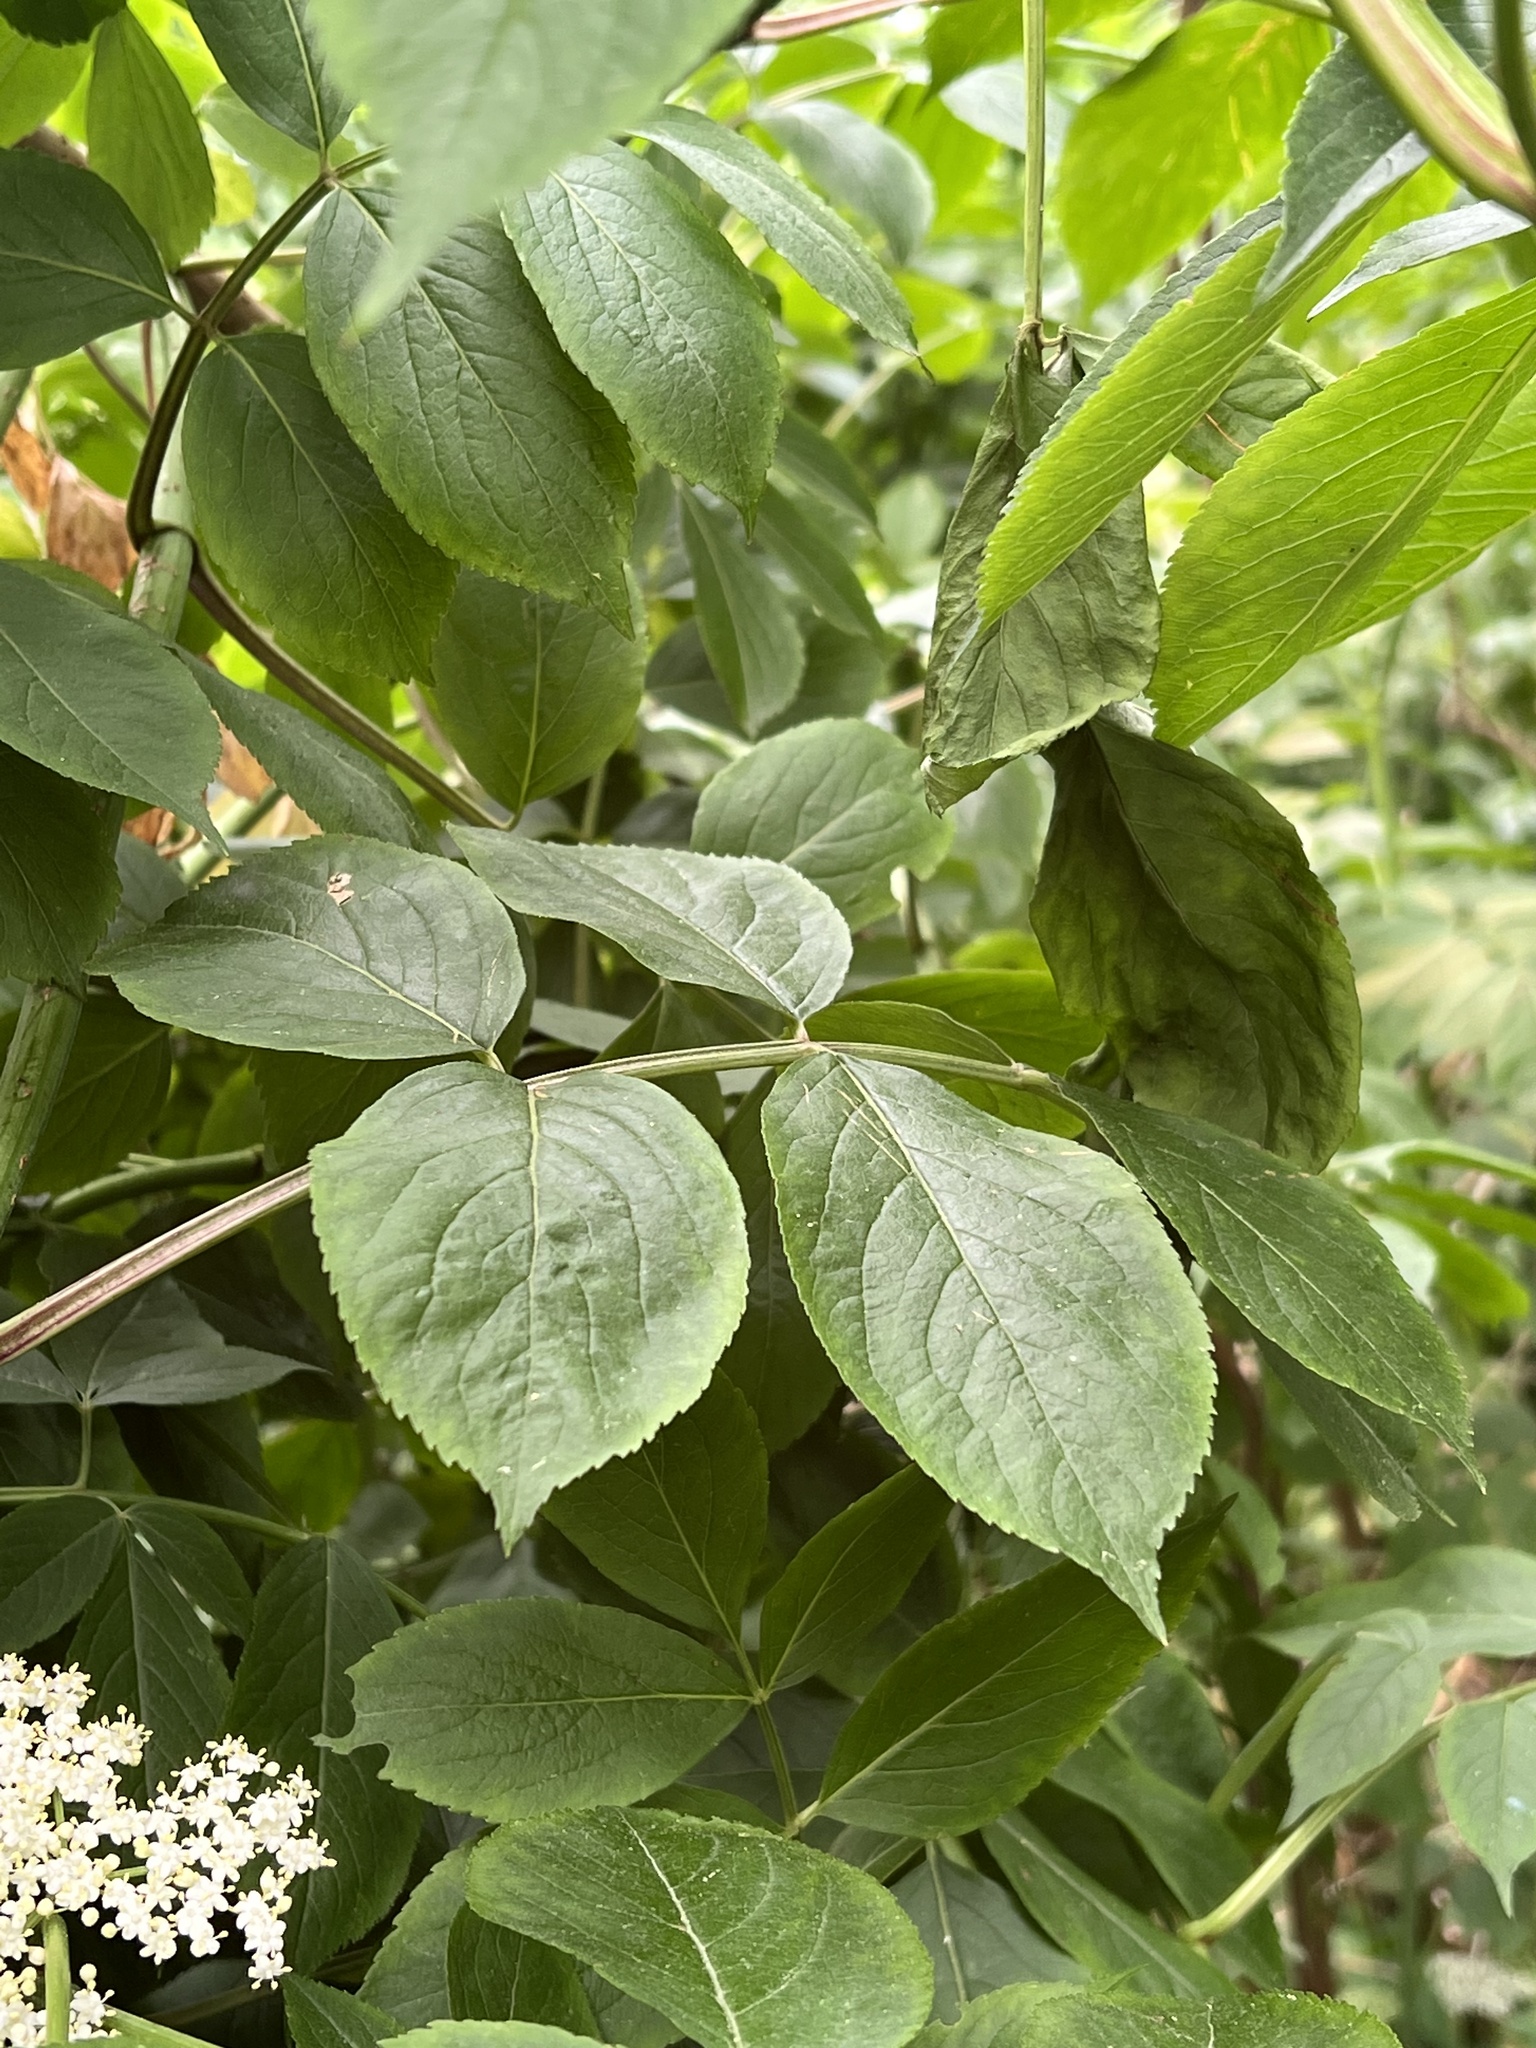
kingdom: Plantae
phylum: Tracheophyta
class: Magnoliopsida
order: Dipsacales
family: Viburnaceae
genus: Sambucus
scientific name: Sambucus canadensis
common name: American elder
